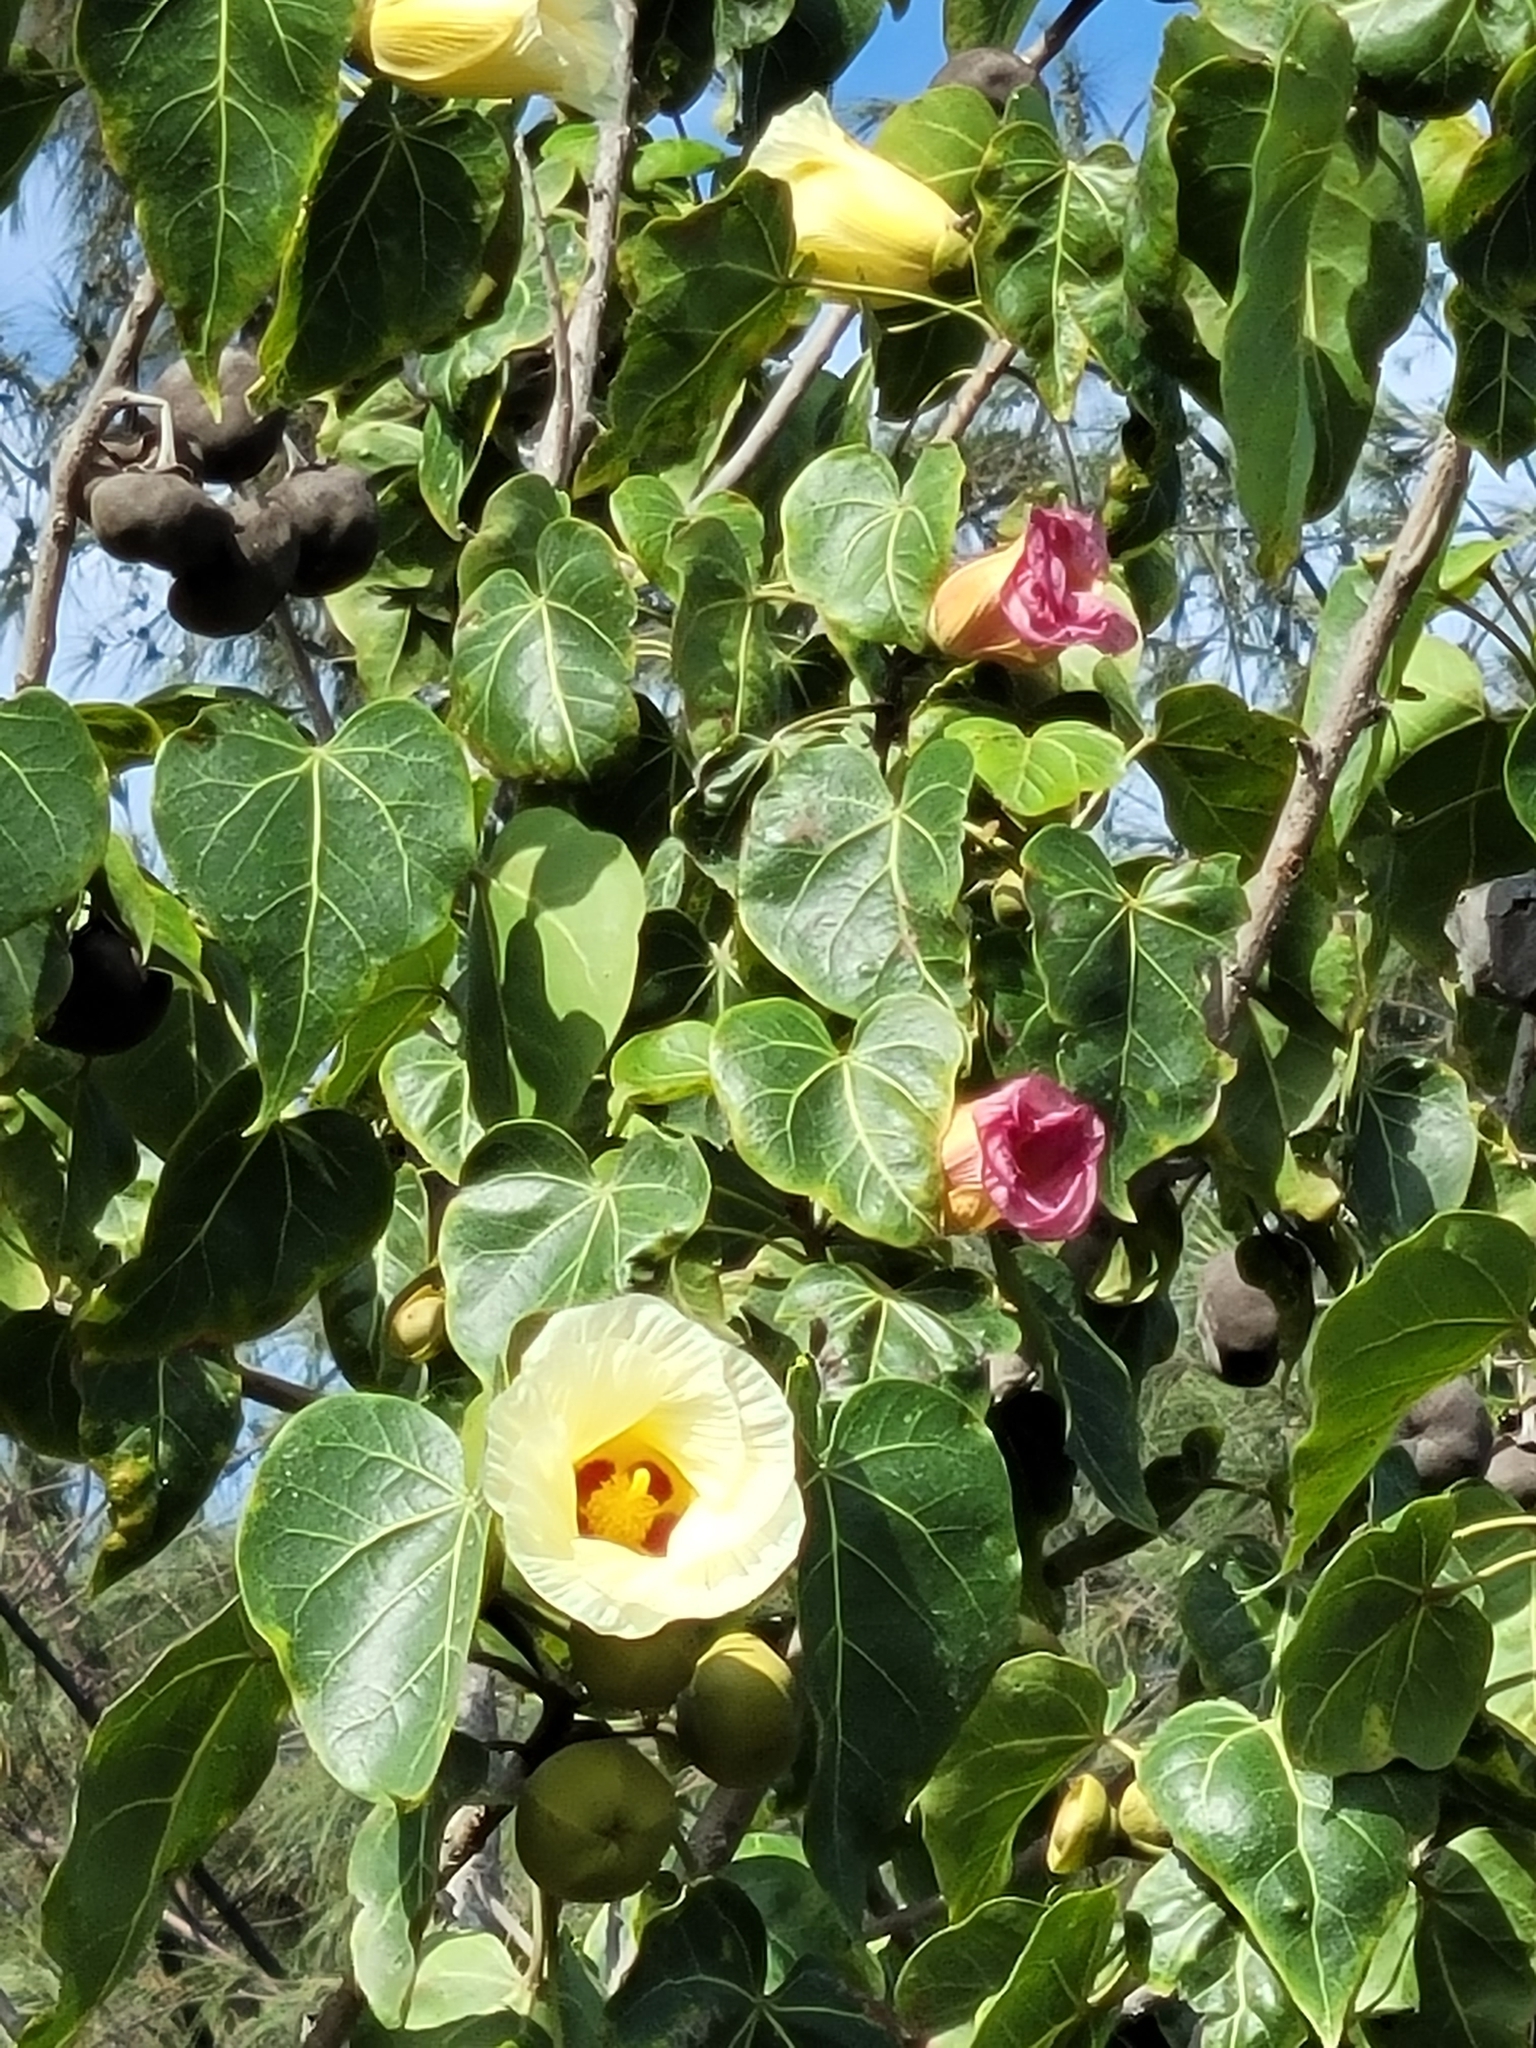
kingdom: Plantae
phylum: Tracheophyta
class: Magnoliopsida
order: Malvales
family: Malvaceae
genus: Thespesia
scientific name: Thespesia populnea
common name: Seaside mahoe
